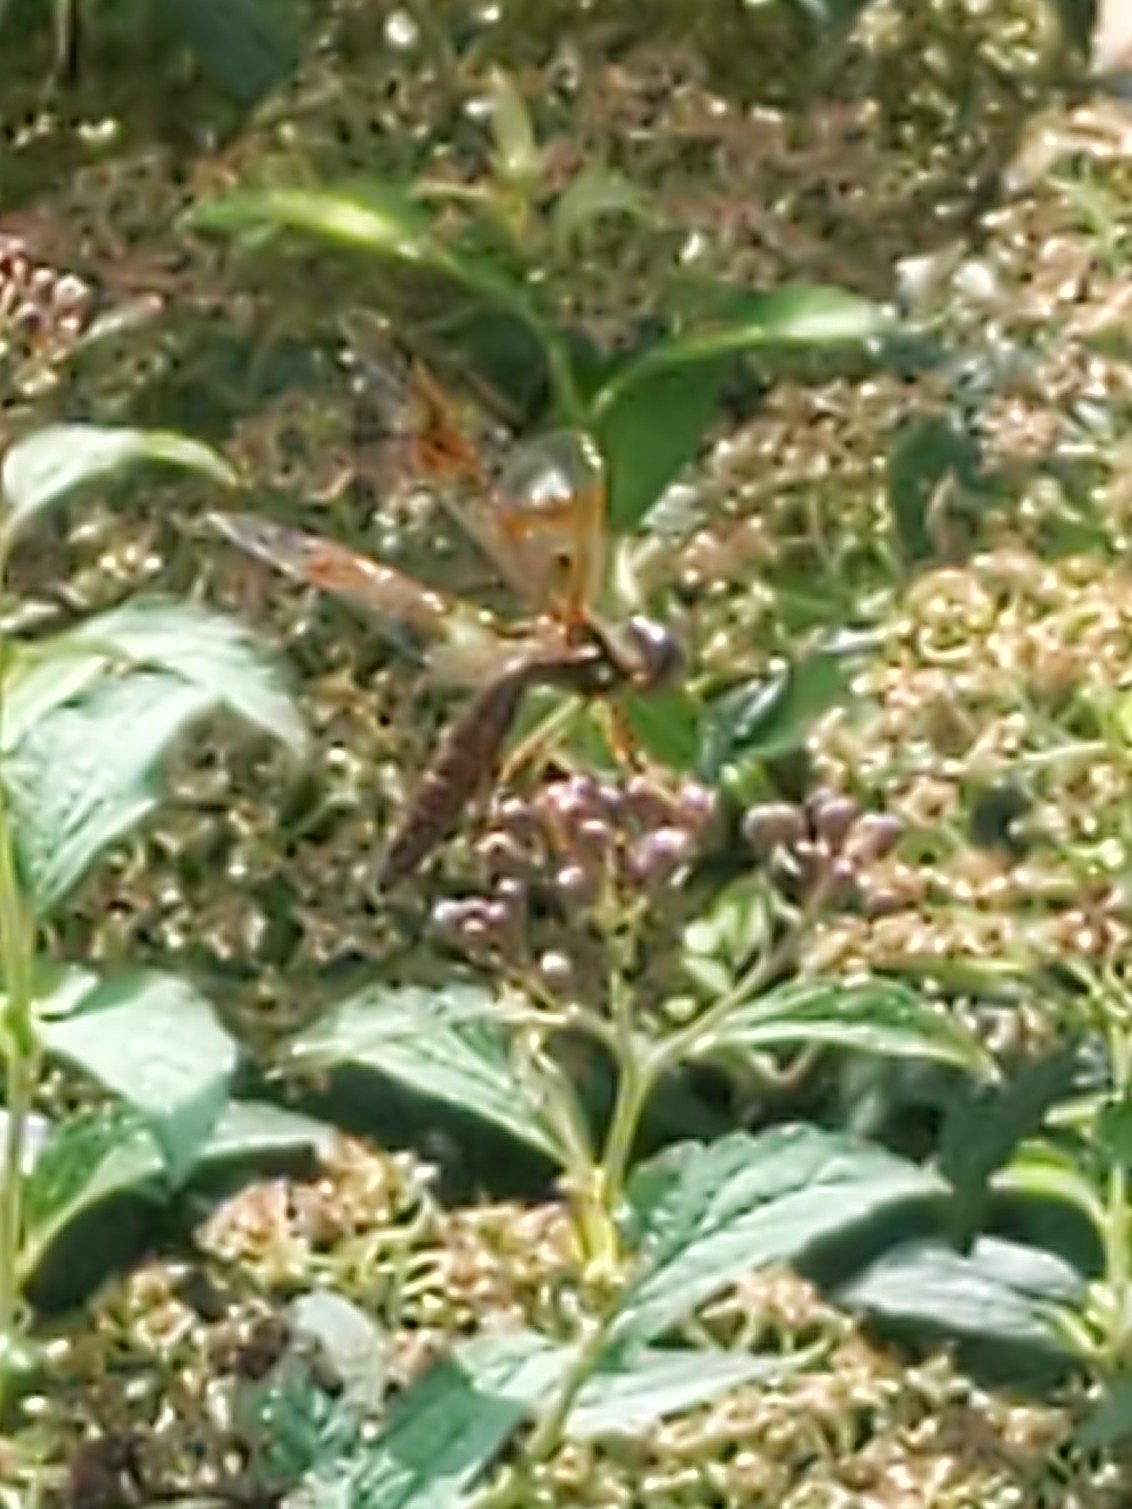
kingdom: Animalia
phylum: Arthropoda
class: Insecta
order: Odonata
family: Libellulidae
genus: Perithemis
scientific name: Perithemis tenera
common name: Eastern amberwing
